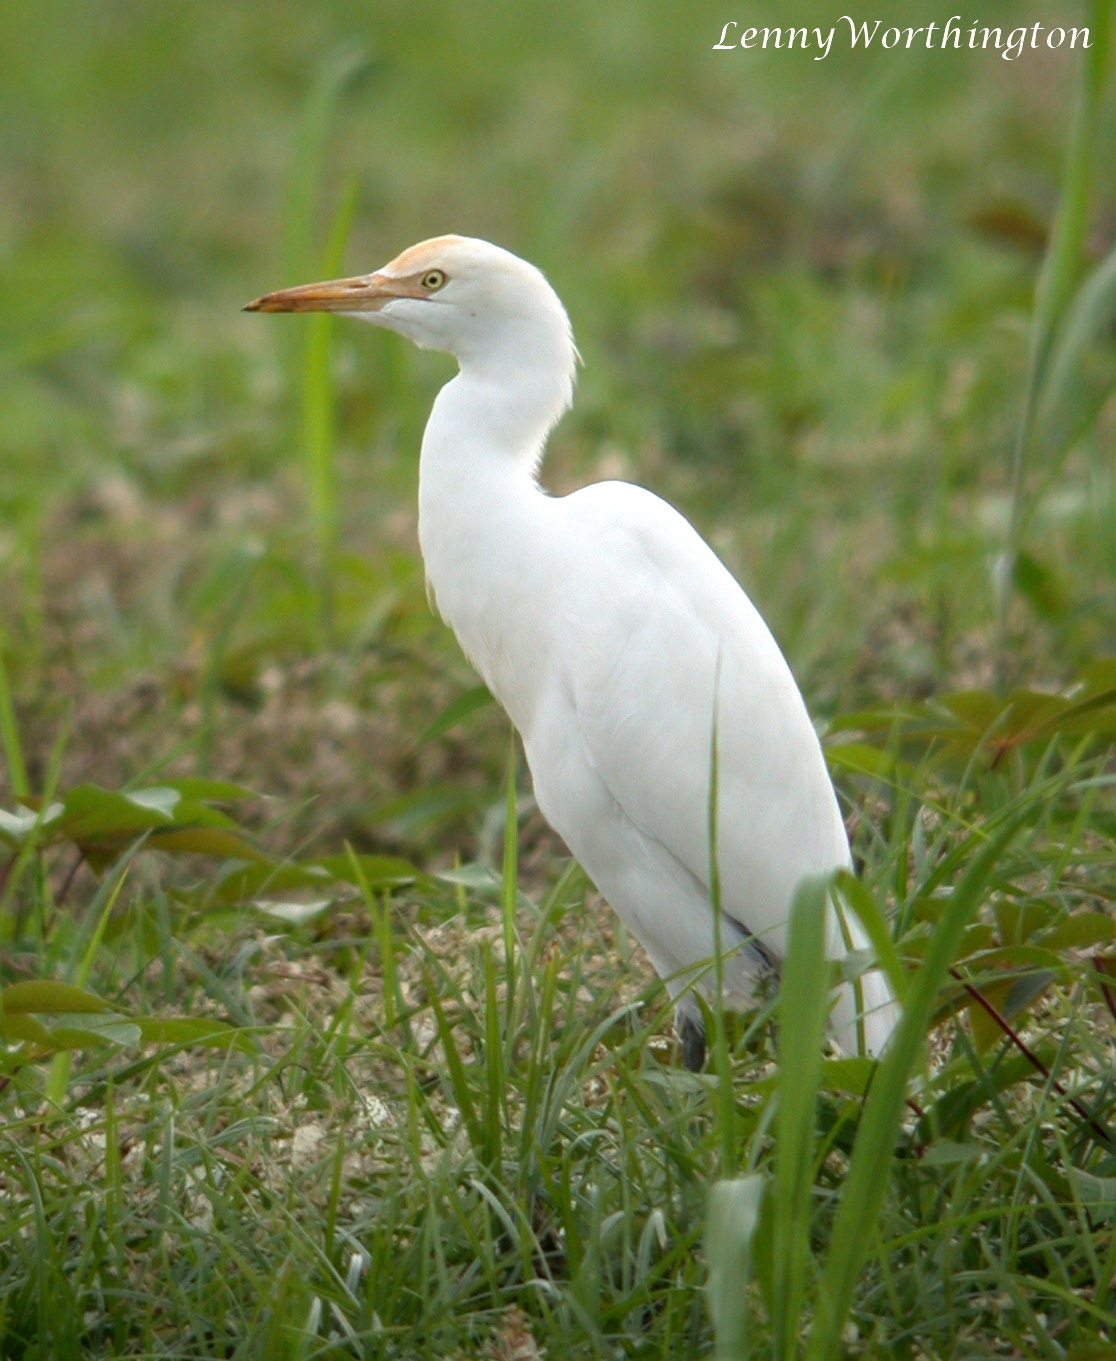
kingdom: Animalia
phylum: Chordata
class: Aves
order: Pelecaniformes
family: Ardeidae
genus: Bubulcus
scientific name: Bubulcus coromandus
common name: Eastern cattle egret
